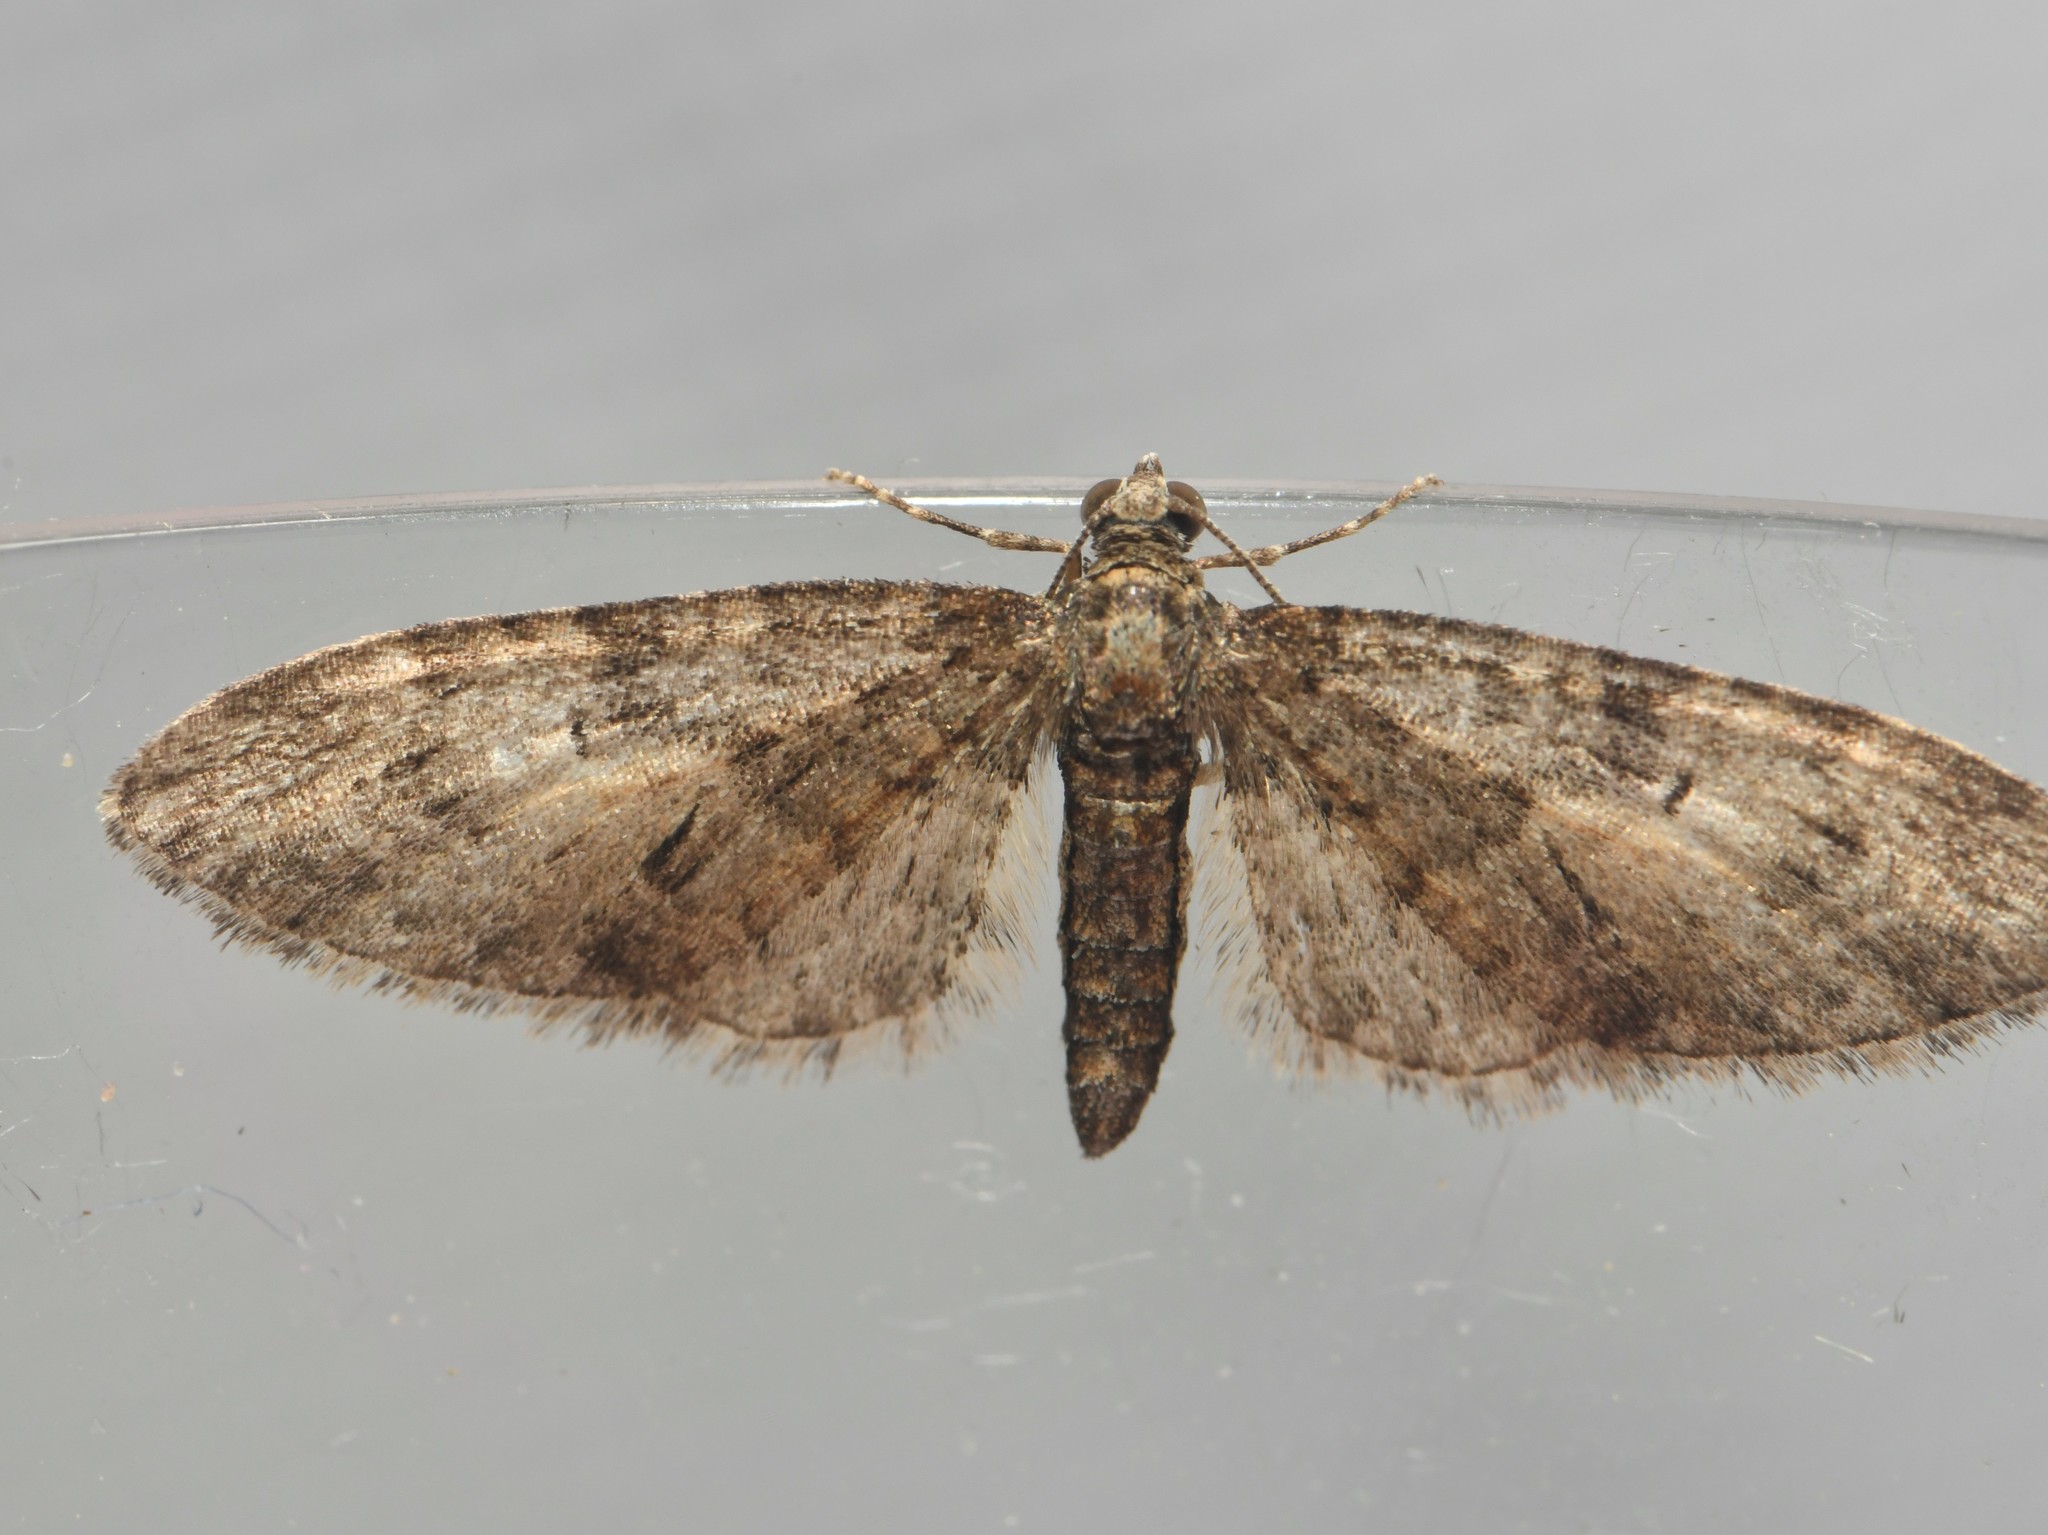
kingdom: Animalia
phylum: Arthropoda
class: Insecta
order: Lepidoptera
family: Geometridae
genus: Eupithecia
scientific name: Eupithecia abbreviata
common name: Brindled pug
